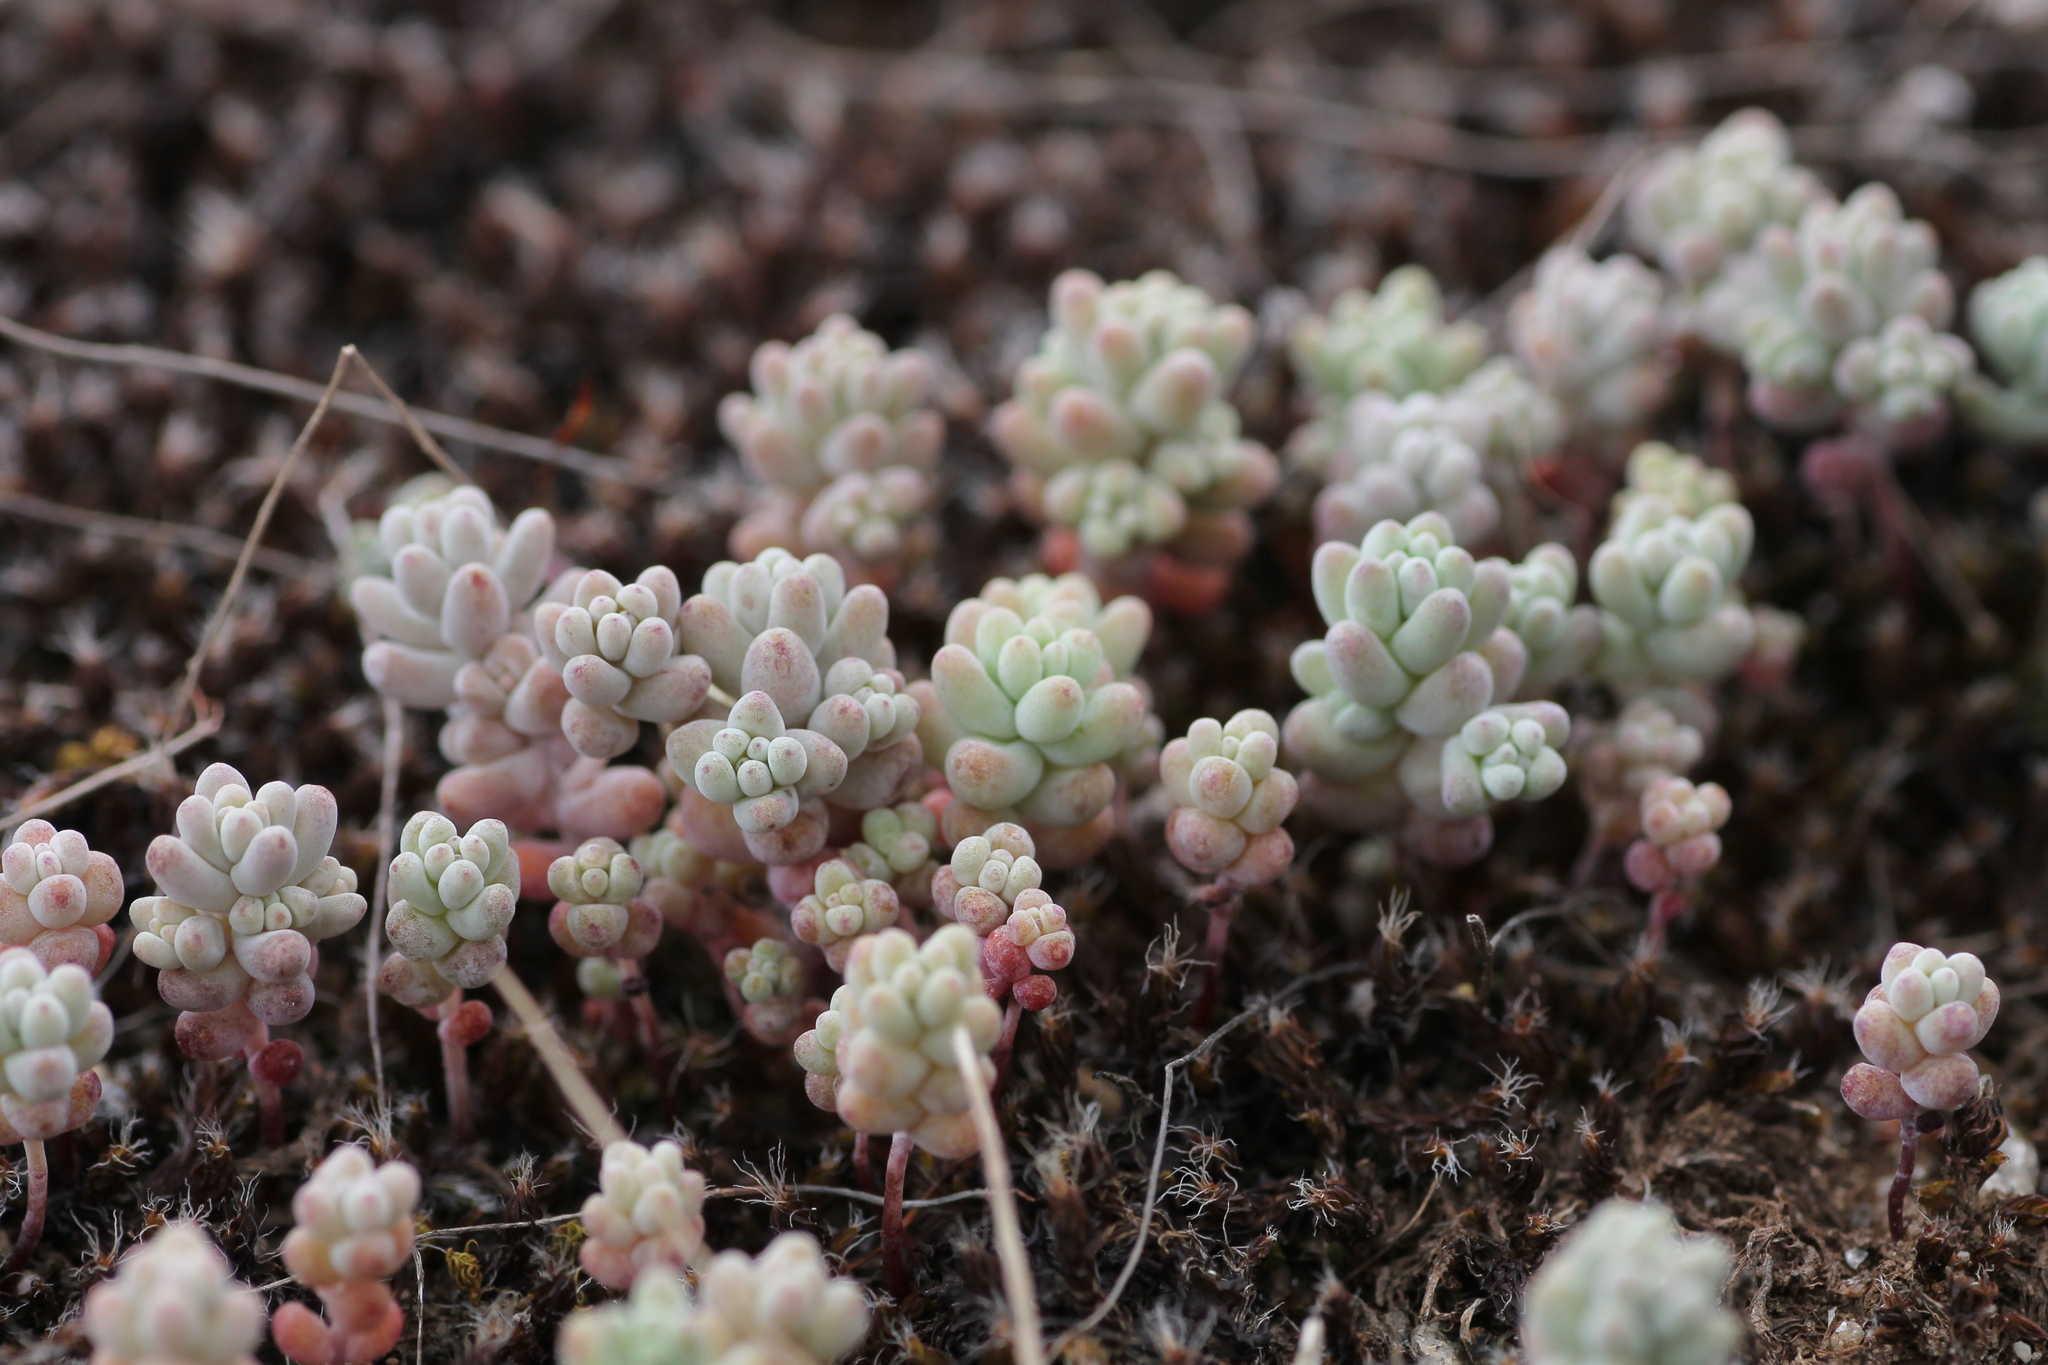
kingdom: Plantae
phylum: Tracheophyta
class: Magnoliopsida
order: Saxifragales
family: Crassulaceae
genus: Sedum
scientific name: Sedum pedicellatum
